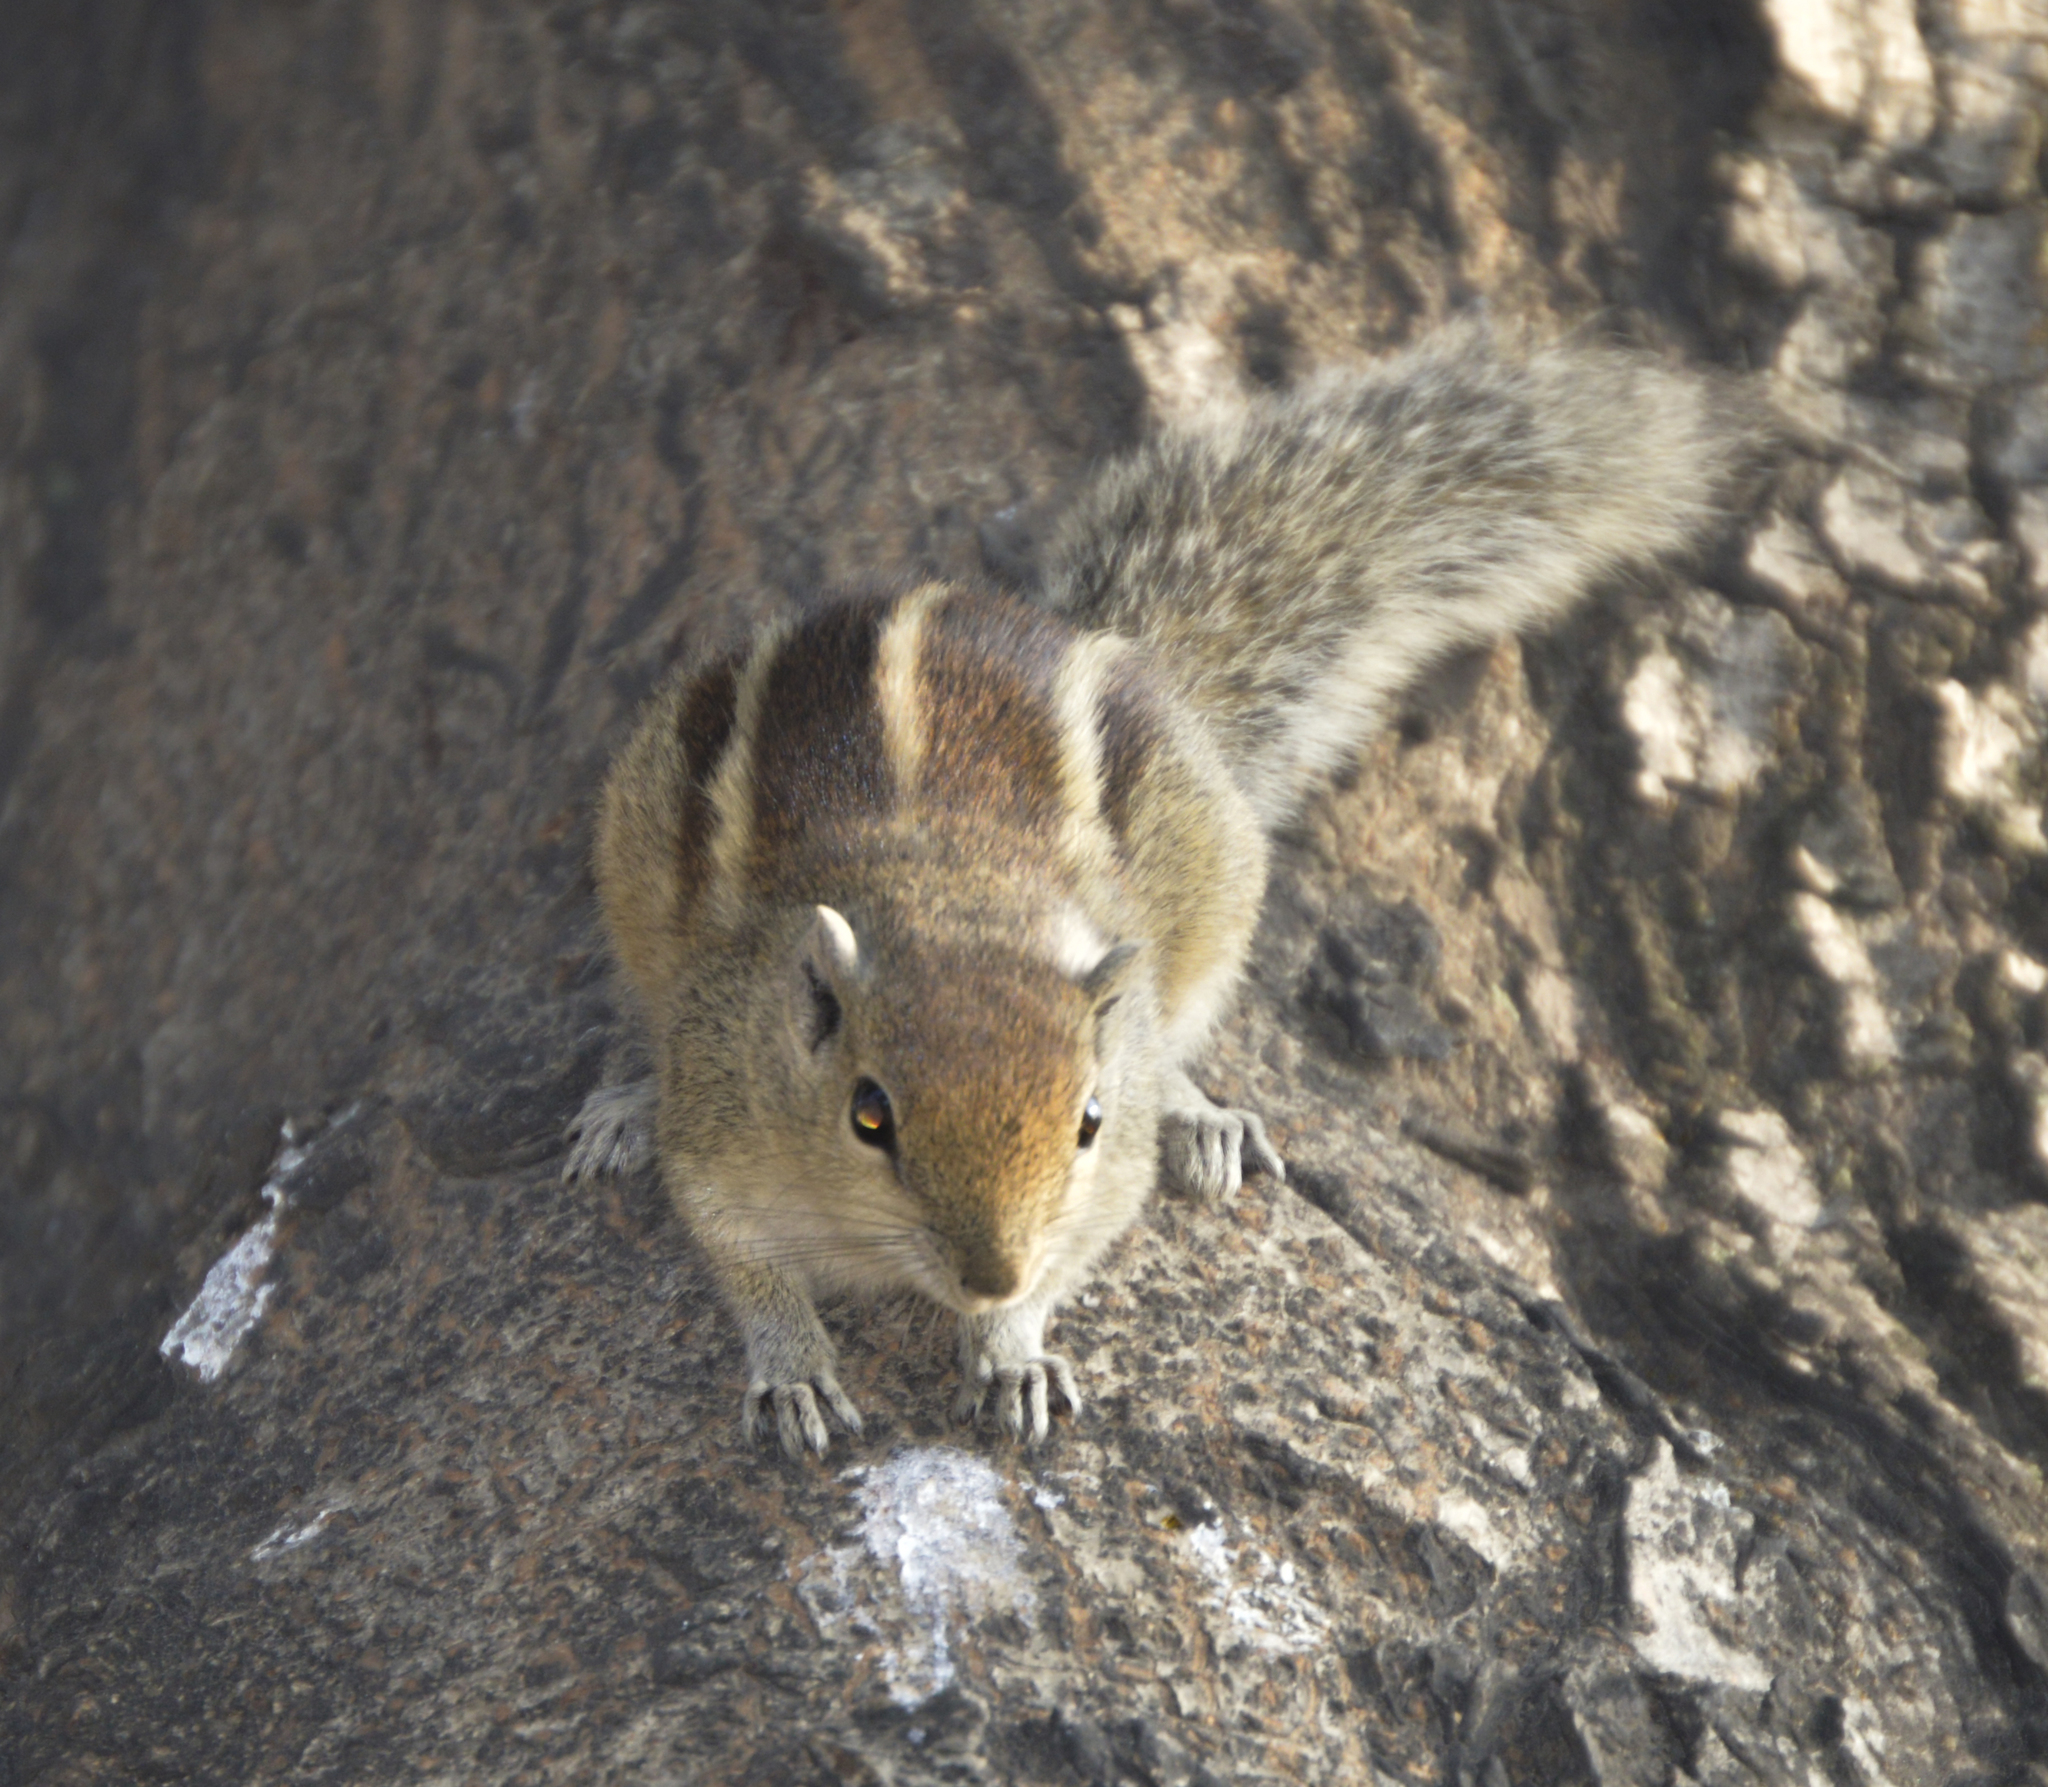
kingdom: Animalia
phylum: Chordata
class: Mammalia
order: Rodentia
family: Sciuridae
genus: Funambulus
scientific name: Funambulus palmarum
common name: Indian palm squirrel
